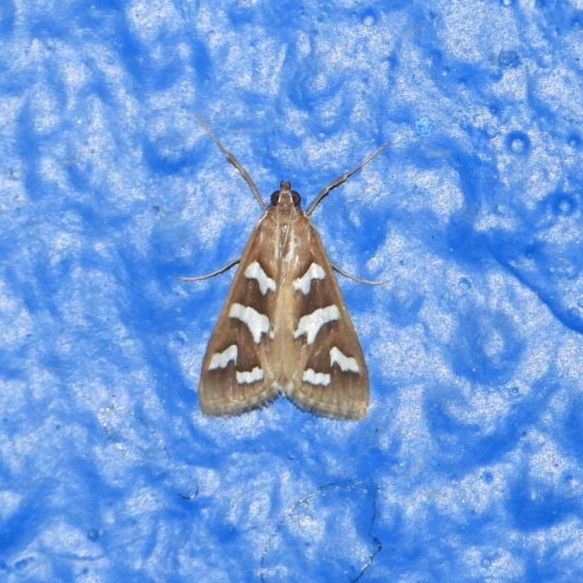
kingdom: Animalia
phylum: Arthropoda
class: Insecta
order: Lepidoptera
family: Crambidae
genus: Diastictis
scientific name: Diastictis fracturalis
